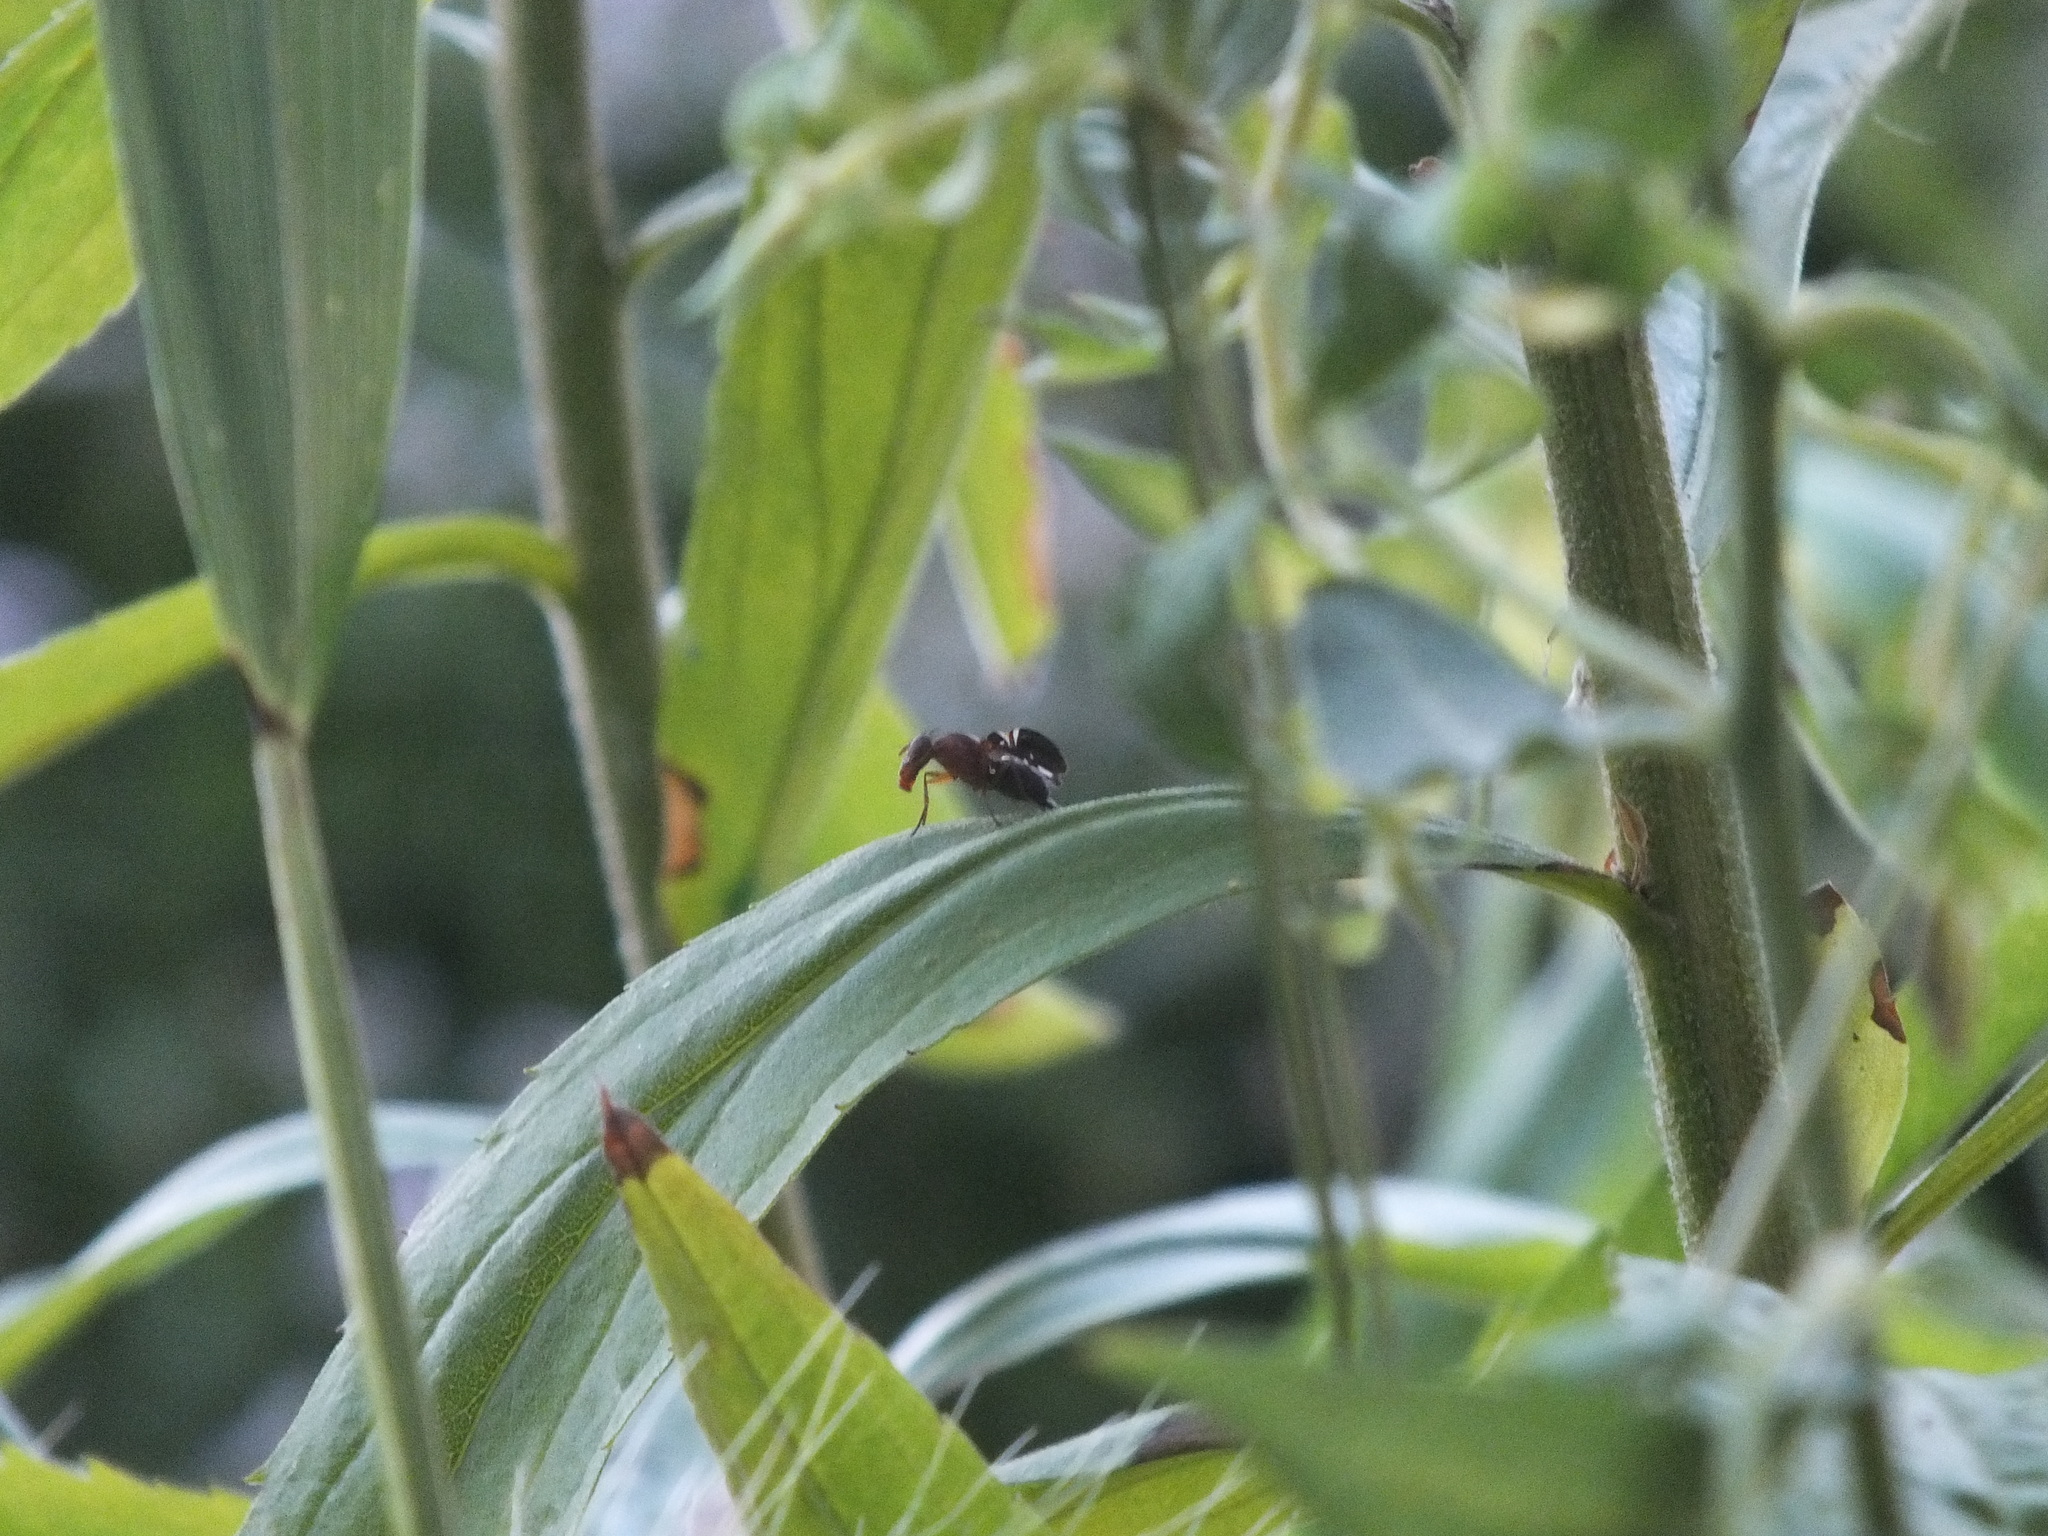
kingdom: Animalia
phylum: Arthropoda
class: Insecta
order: Diptera
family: Ulidiidae
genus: Delphinia
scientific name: Delphinia picta
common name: Common picture-winged fly
